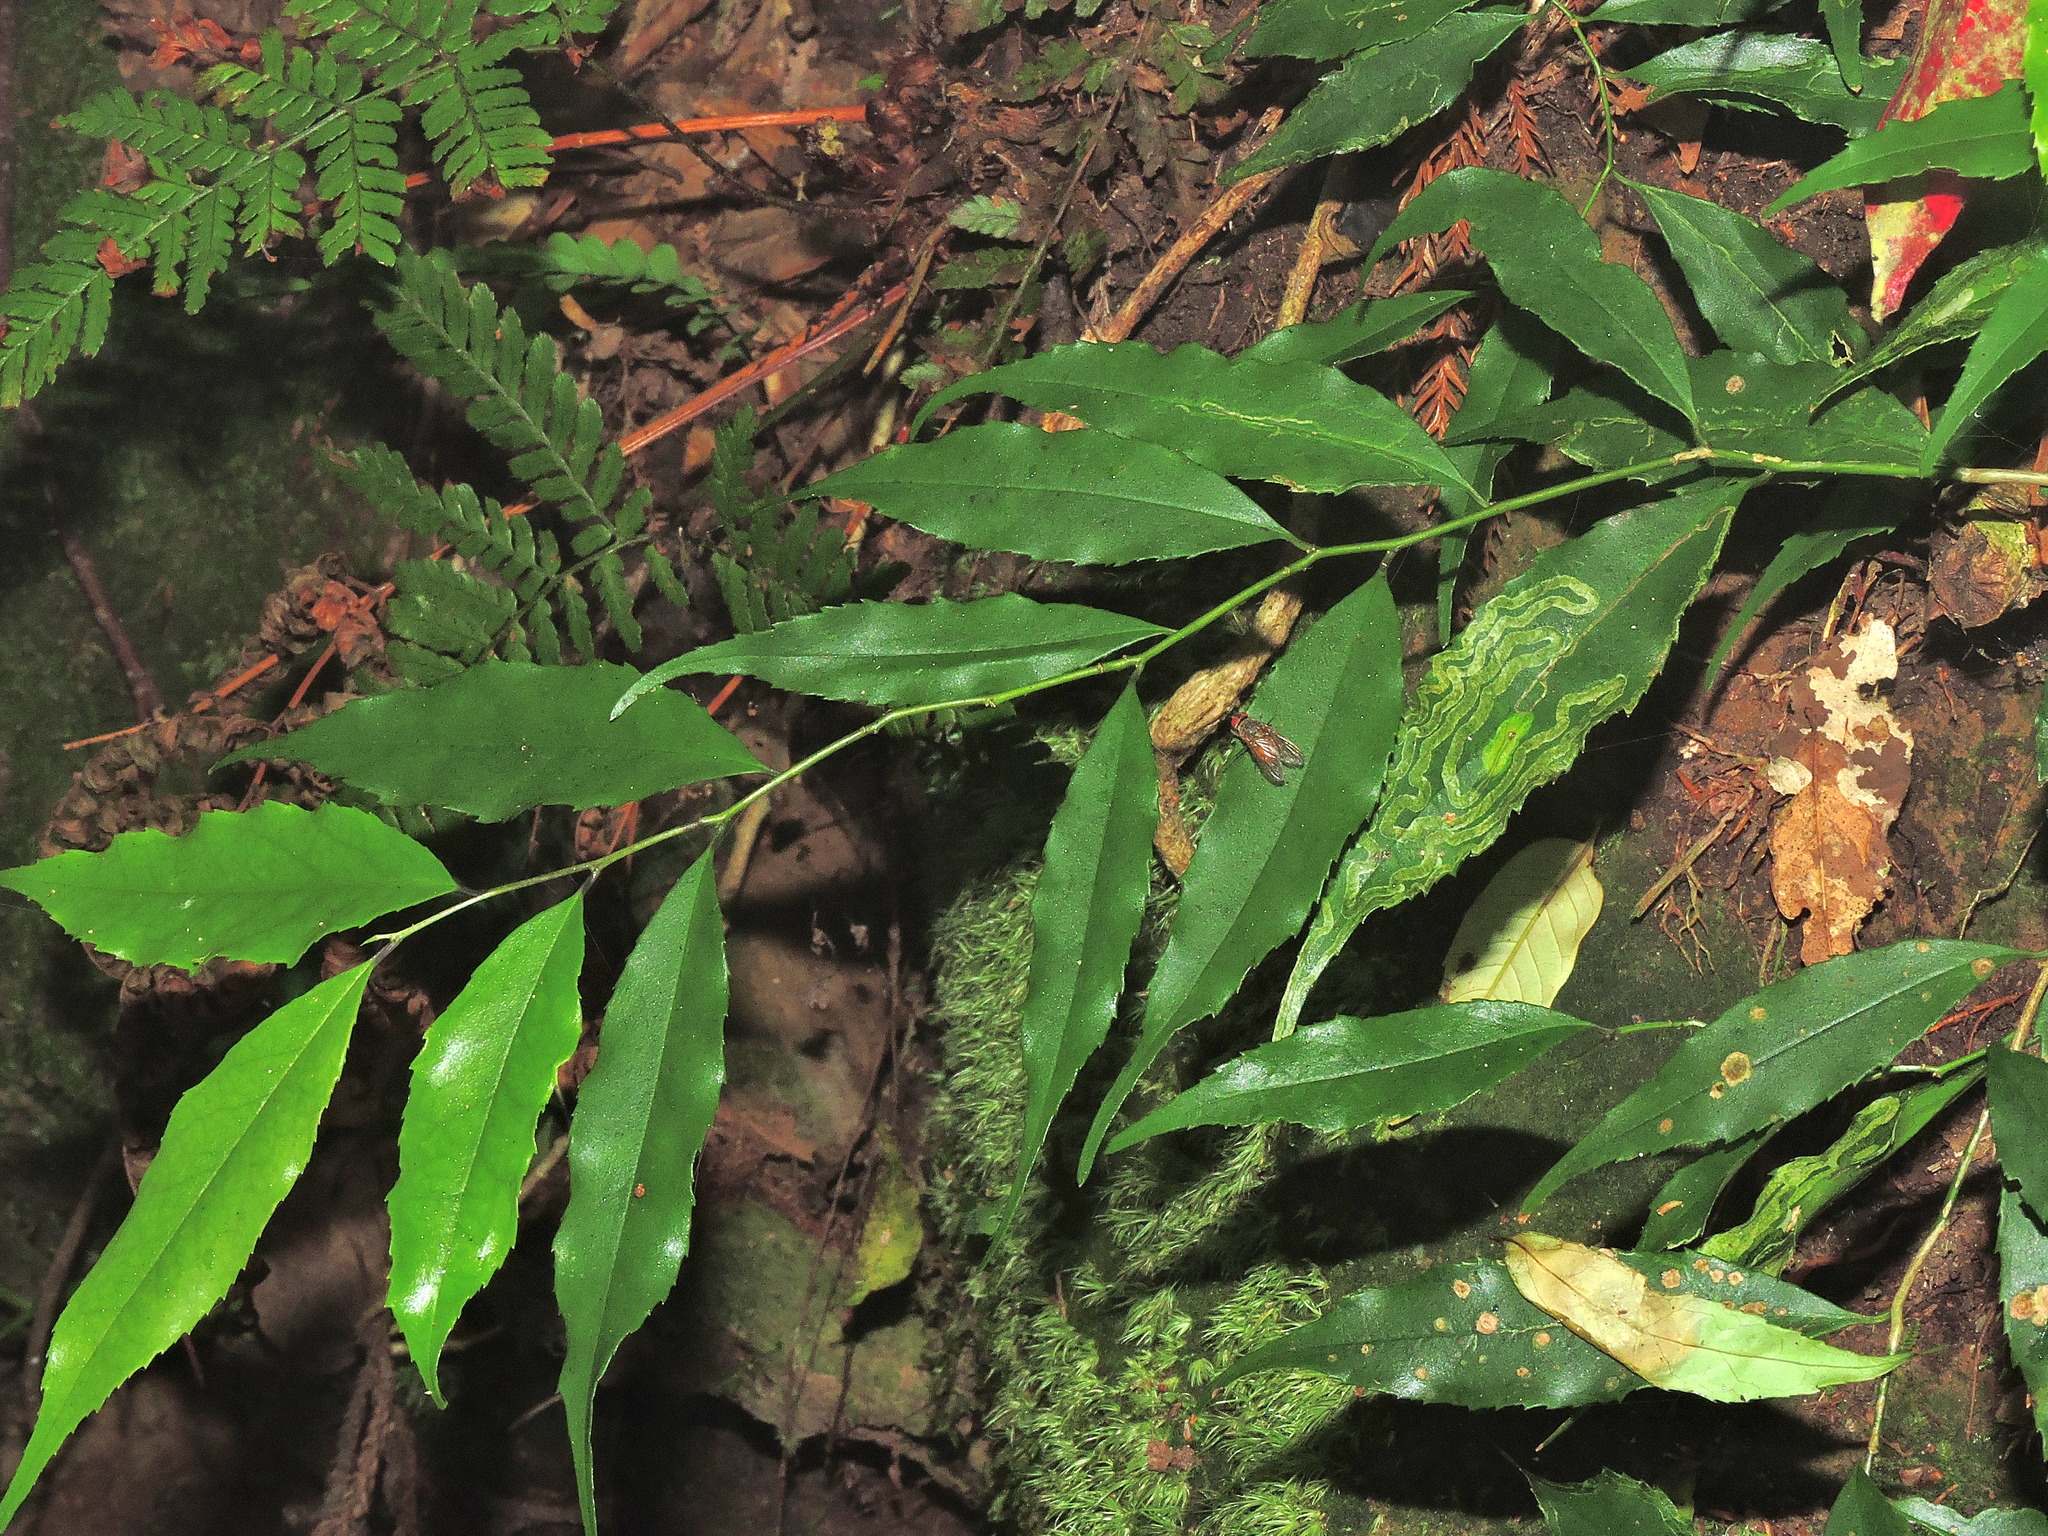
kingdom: Plantae
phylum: Tracheophyta
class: Magnoliopsida
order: Aquifoliales
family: Aquifoliaceae
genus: Ilex
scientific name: Ilex arisanensis
